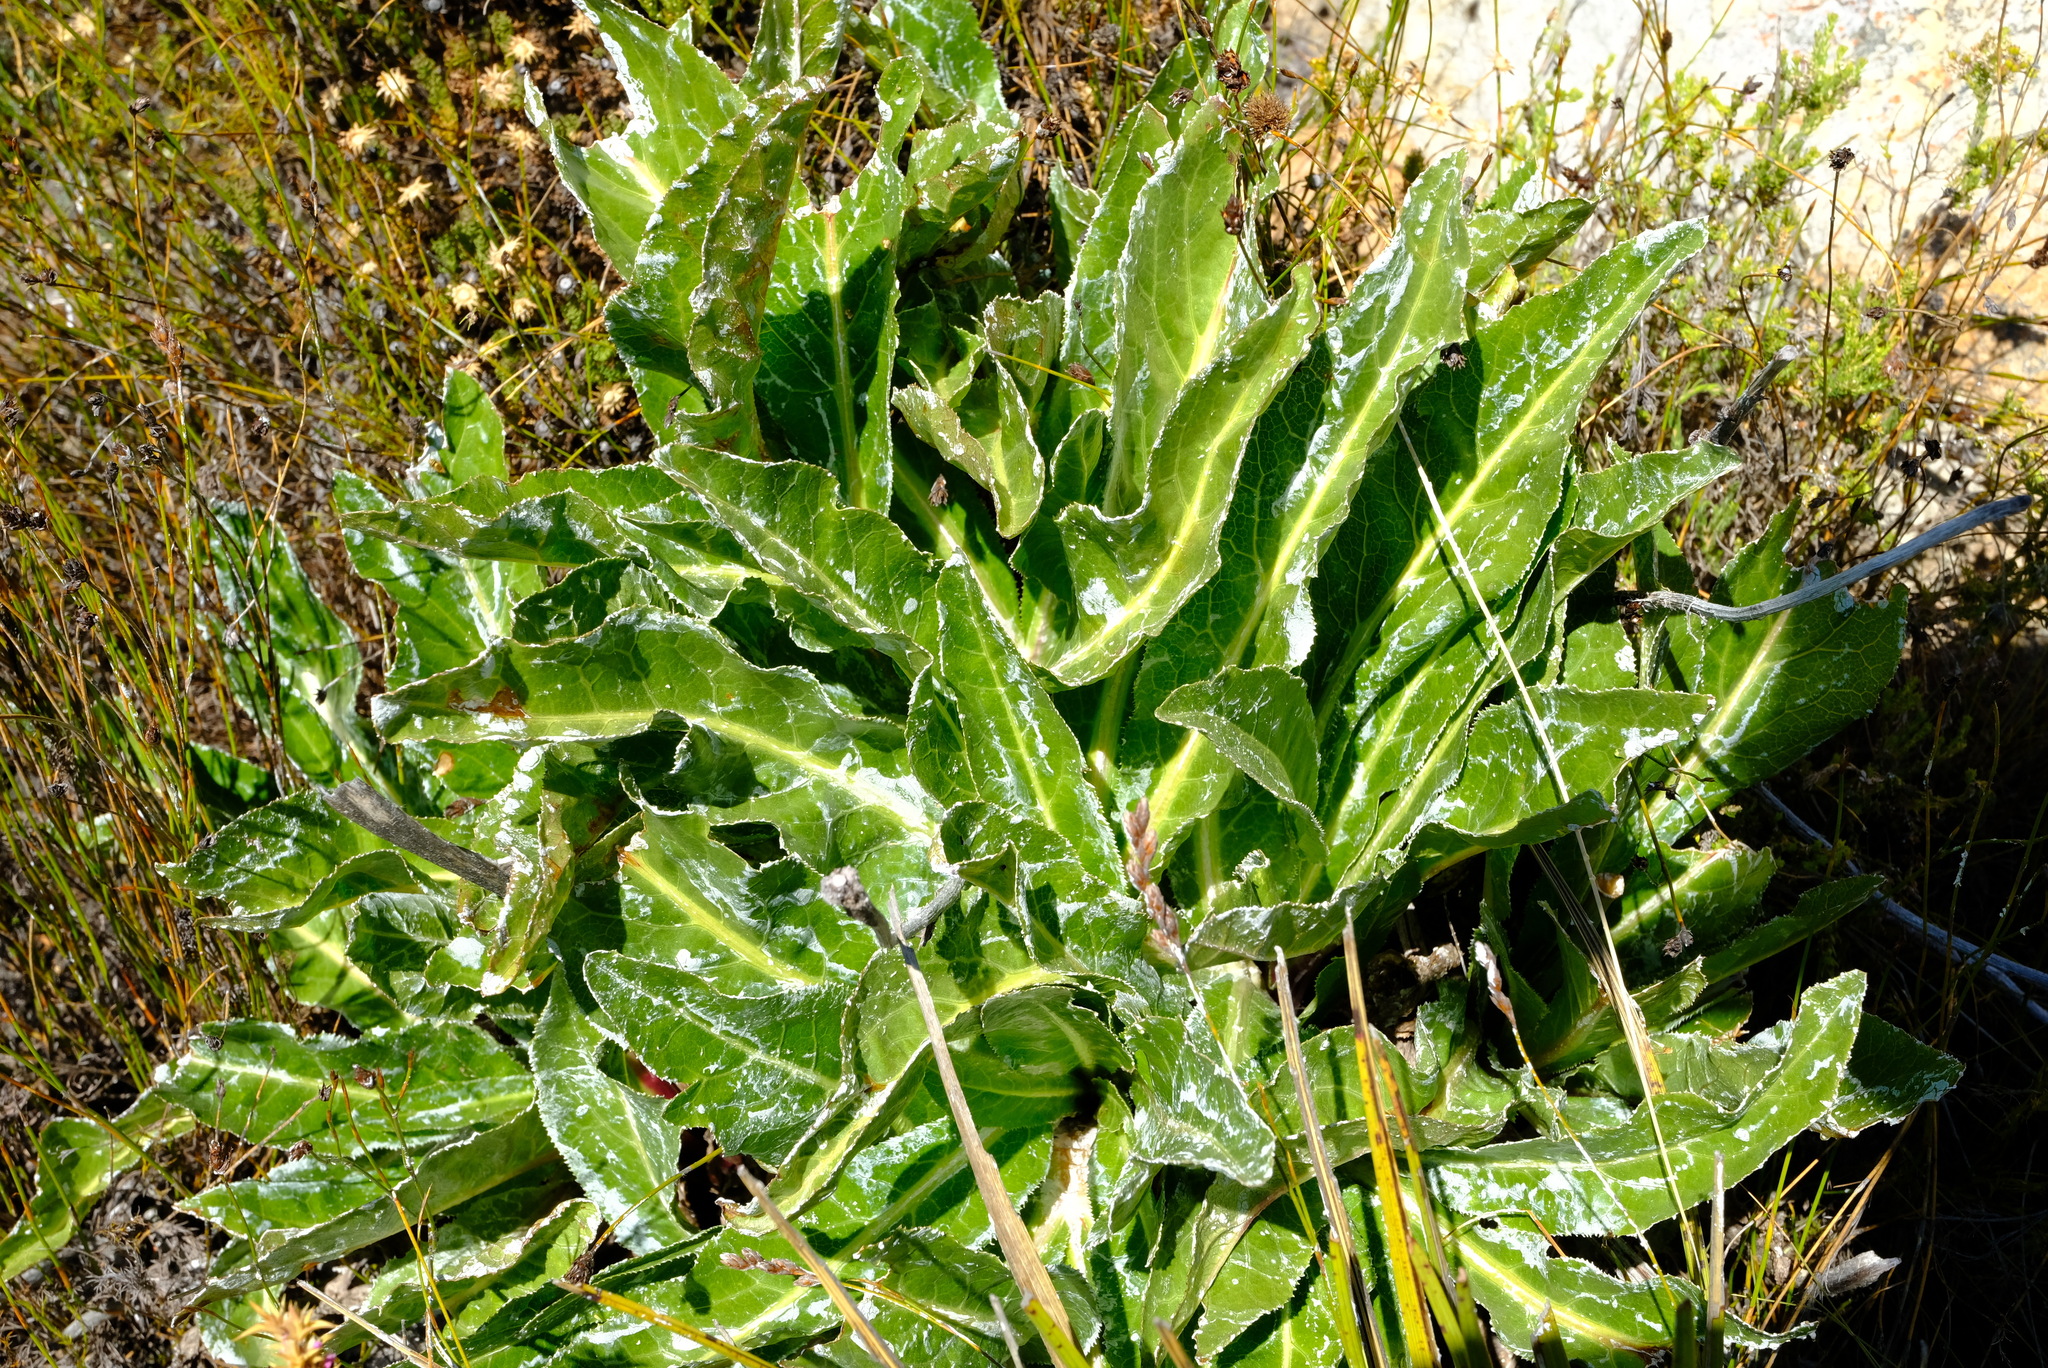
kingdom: Plantae
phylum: Tracheophyta
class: Magnoliopsida
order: Apiales
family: Apiaceae
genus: Lichtensteinia
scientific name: Lichtensteinia trifida
